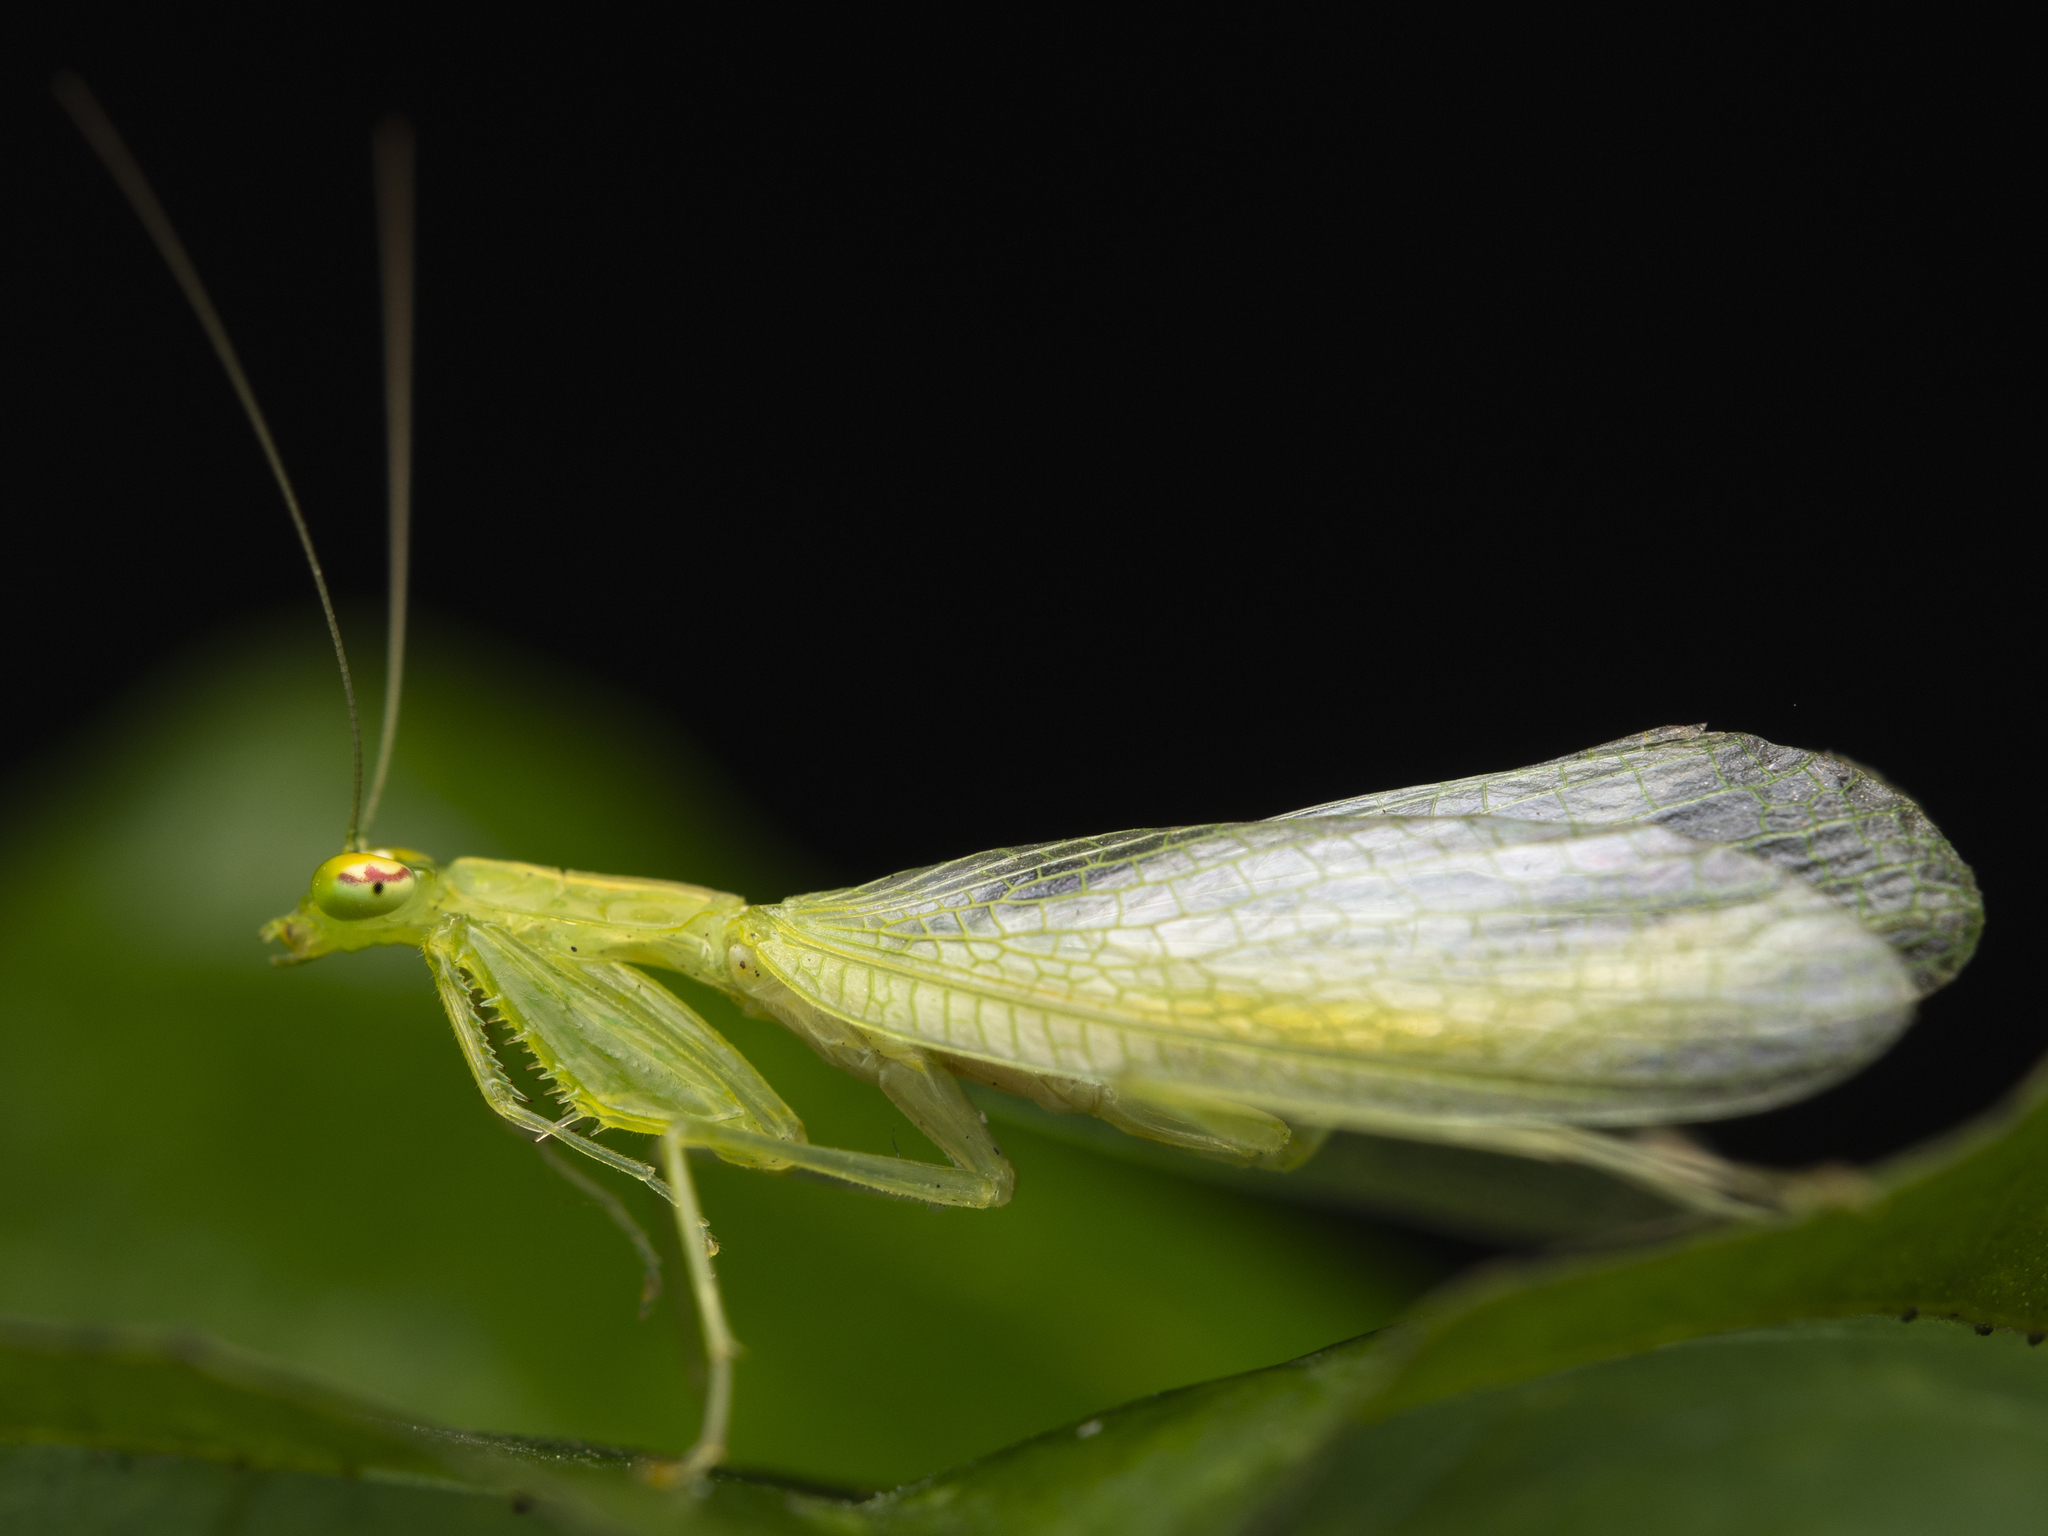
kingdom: Animalia
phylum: Arthropoda
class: Insecta
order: Mantodea
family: Nanomantidae
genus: Tropidomantis
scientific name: Tropidomantis gressitti
